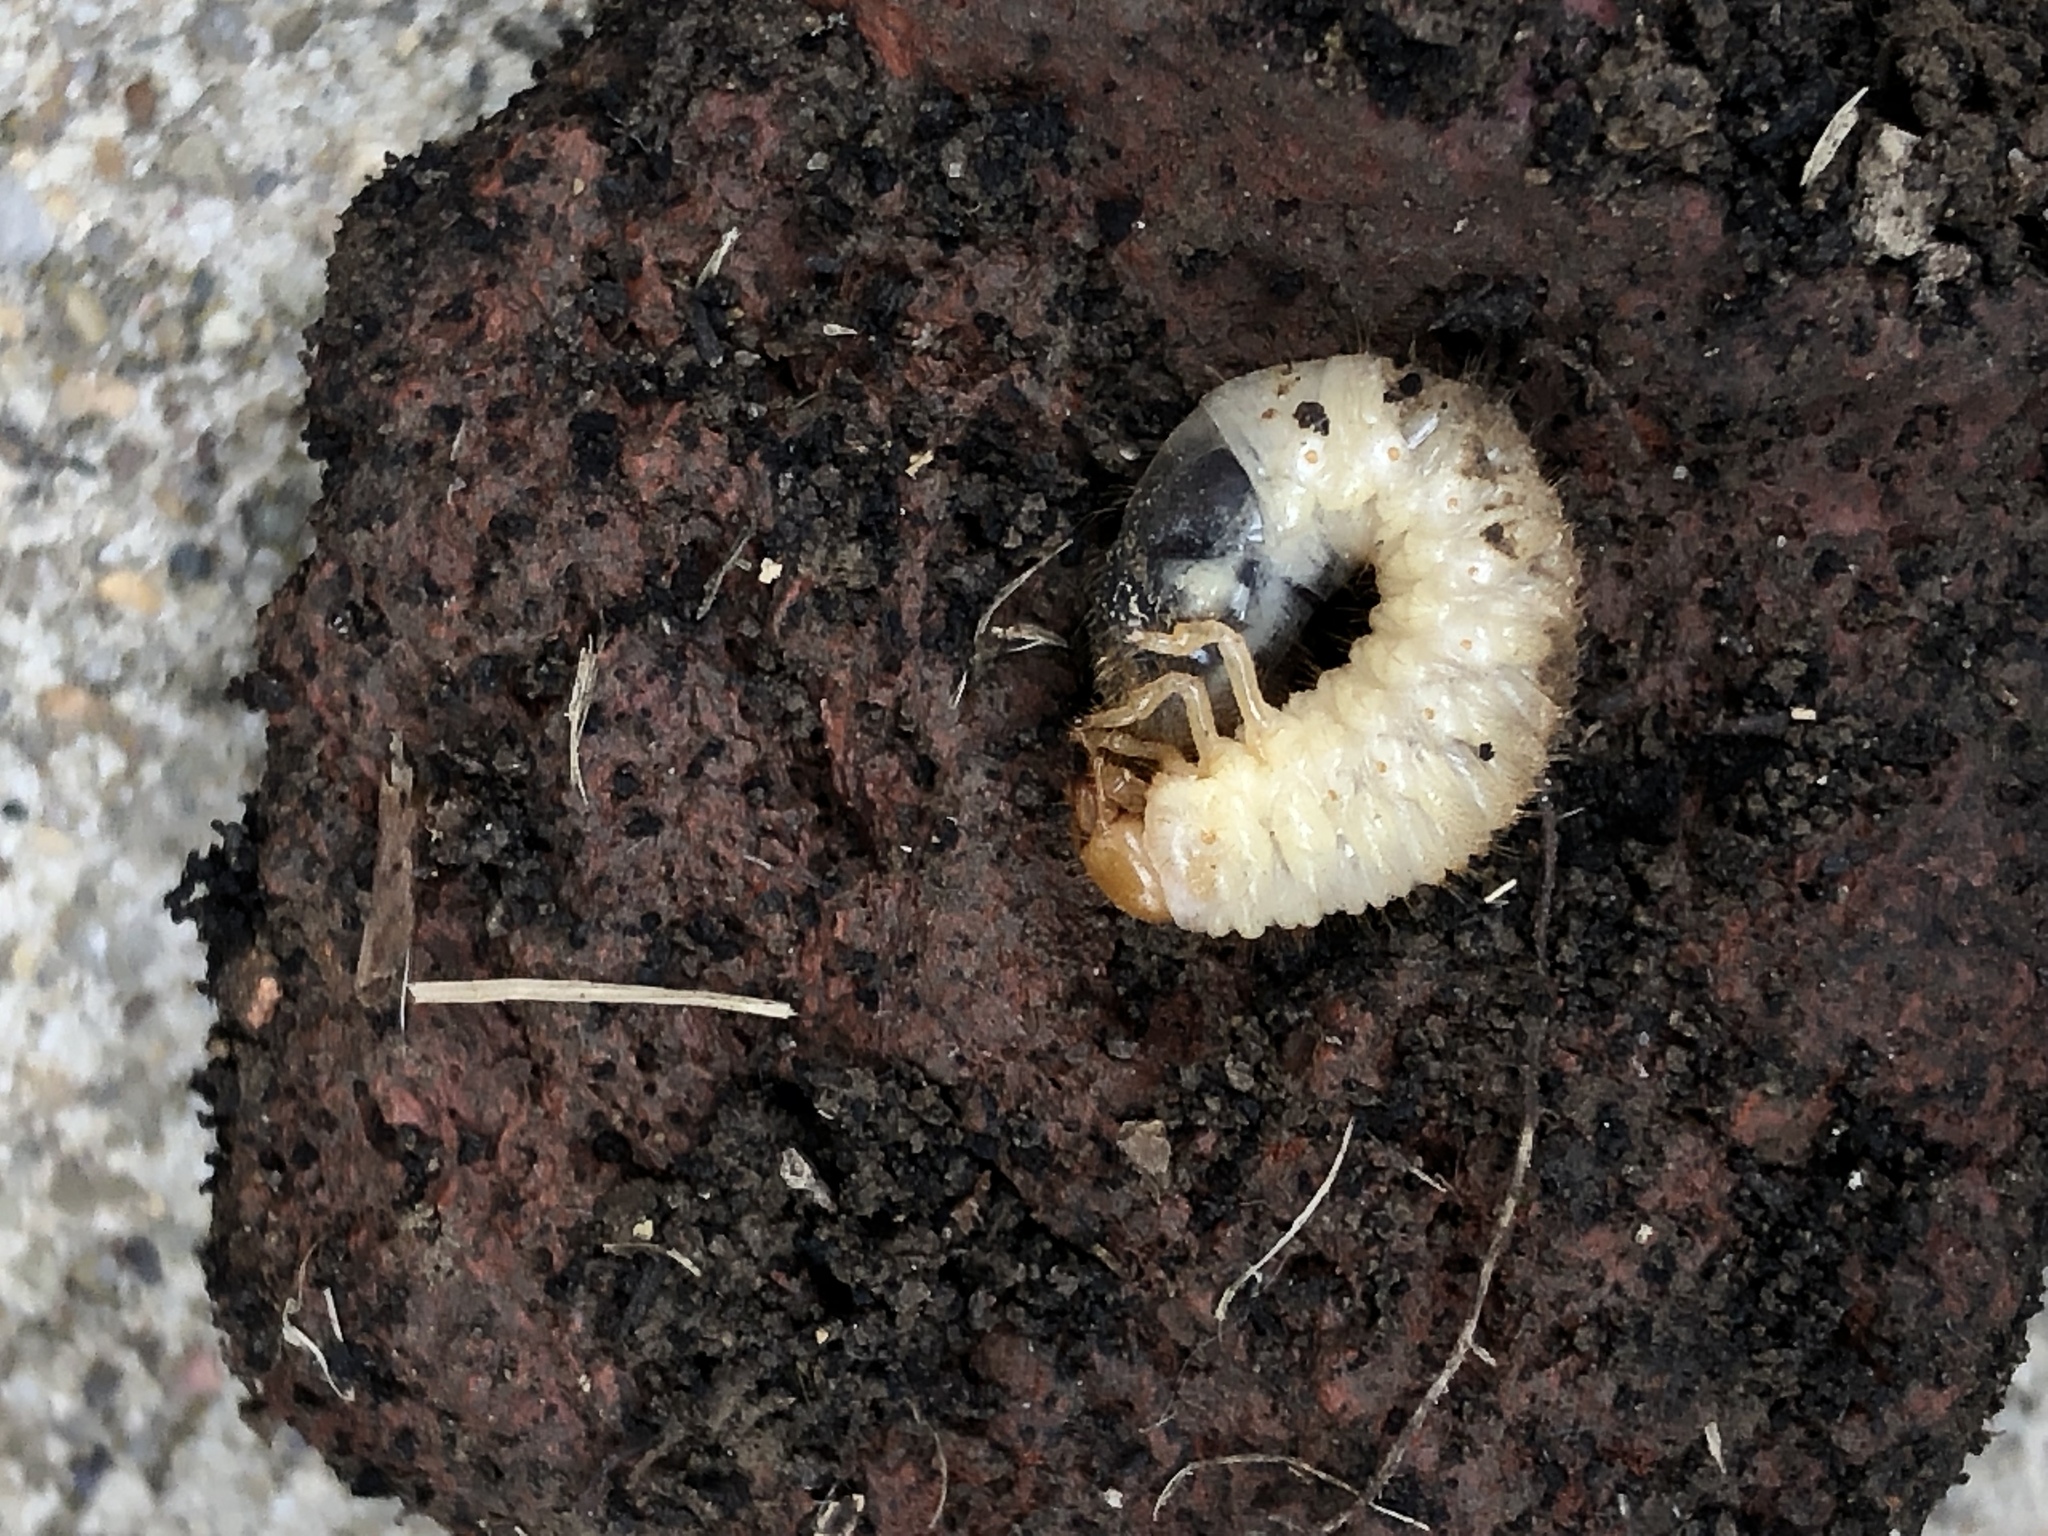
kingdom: Animalia
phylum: Arthropoda
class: Insecta
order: Coleoptera
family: Scarabaeidae
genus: Popillia
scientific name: Popillia japonica
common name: Japanese beetle
